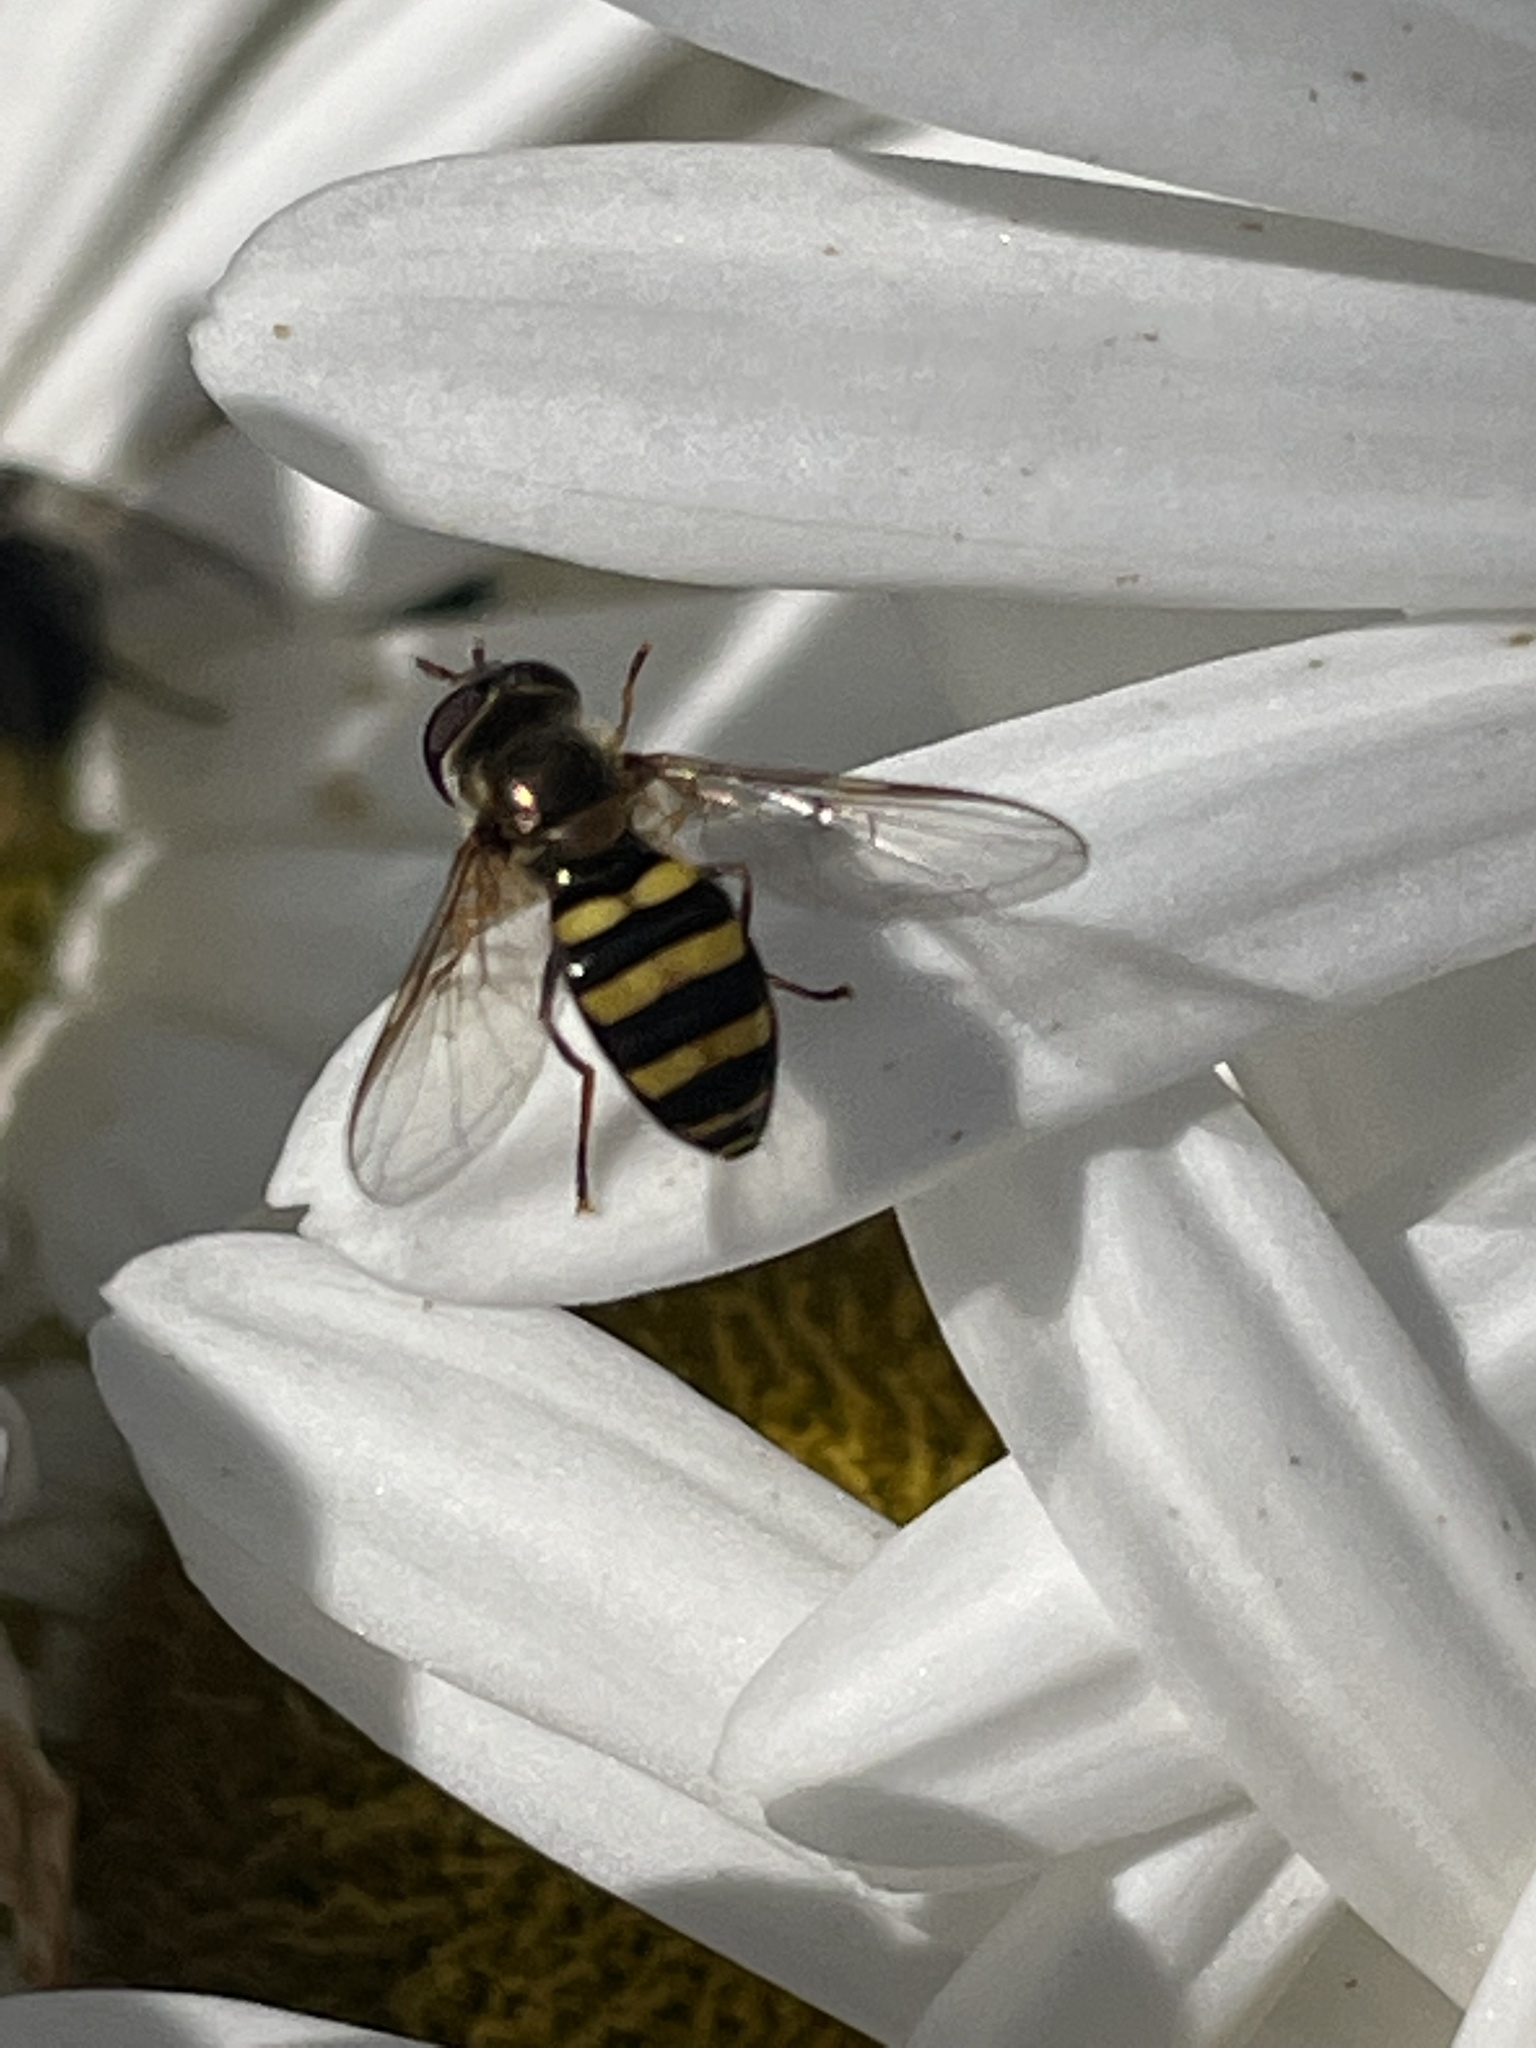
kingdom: Animalia
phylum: Arthropoda
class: Insecta
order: Diptera
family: Syrphidae
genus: Eupeodes
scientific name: Eupeodes
